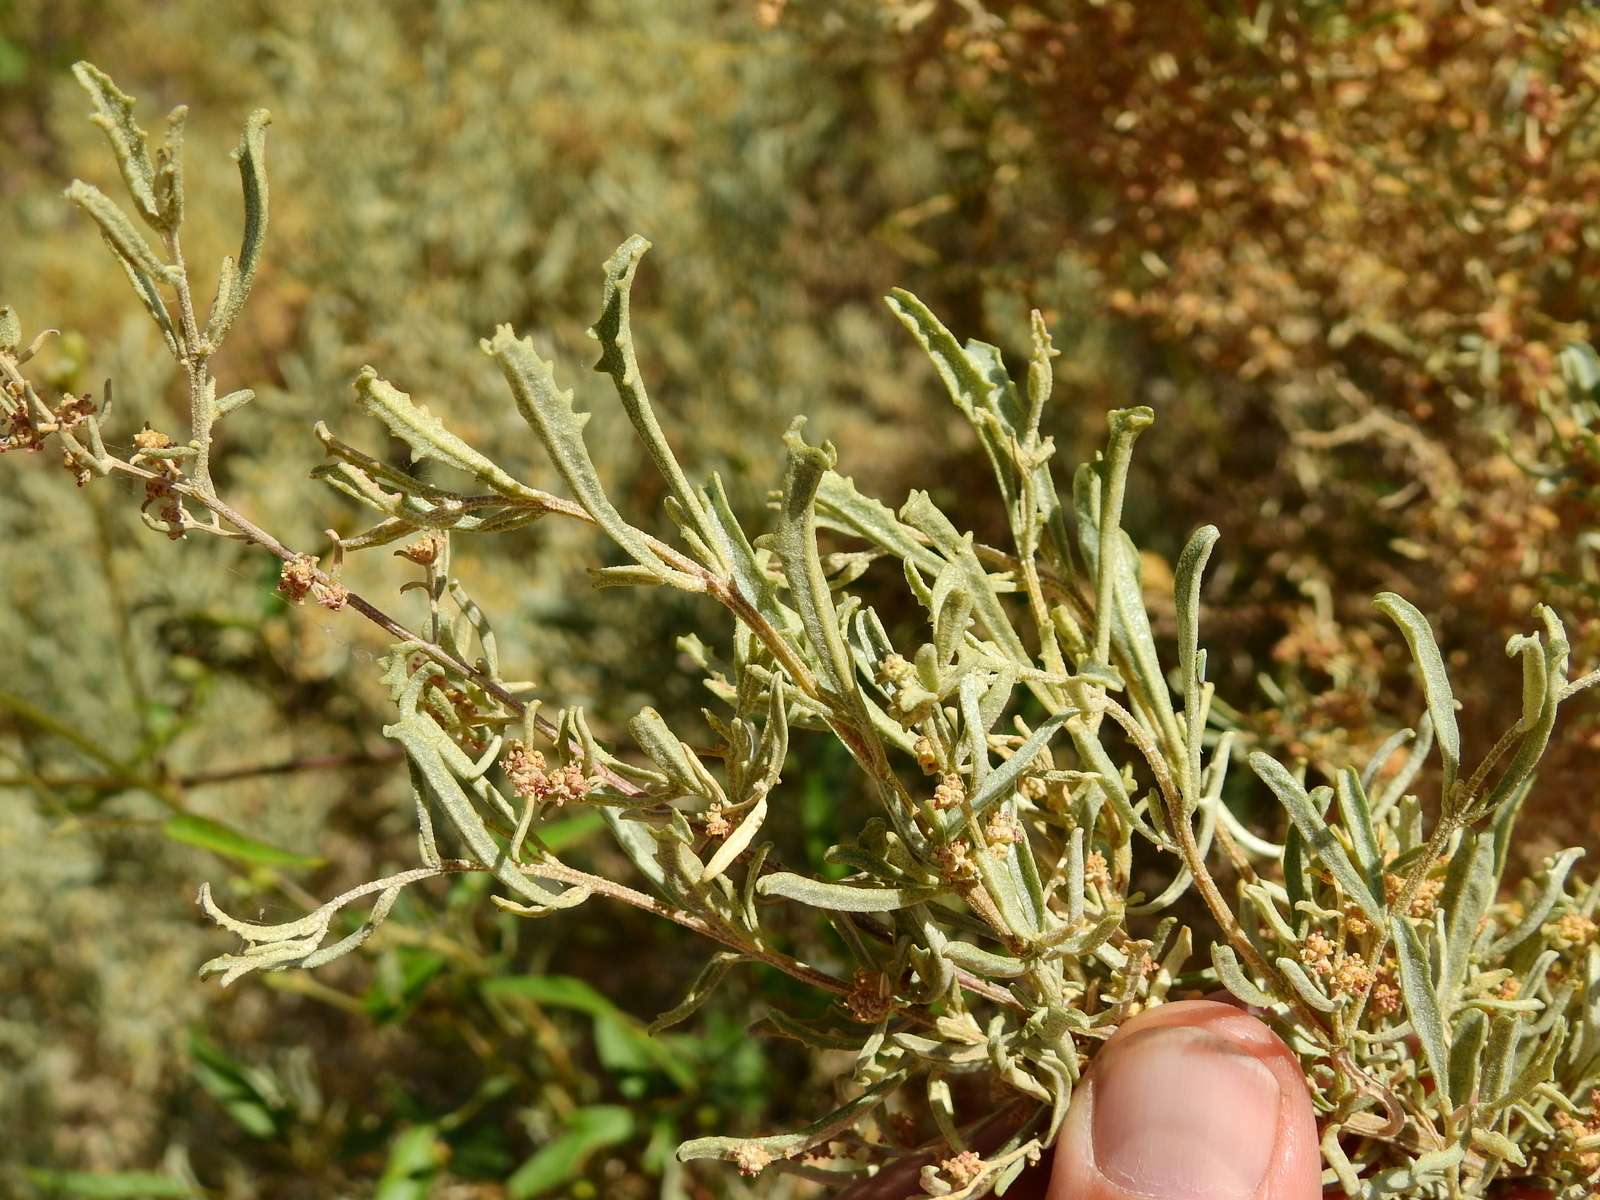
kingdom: Plantae
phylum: Tracheophyta
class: Magnoliopsida
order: Caryophyllales
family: Amaranthaceae
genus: Atriplex
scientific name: Atriplex lampa
